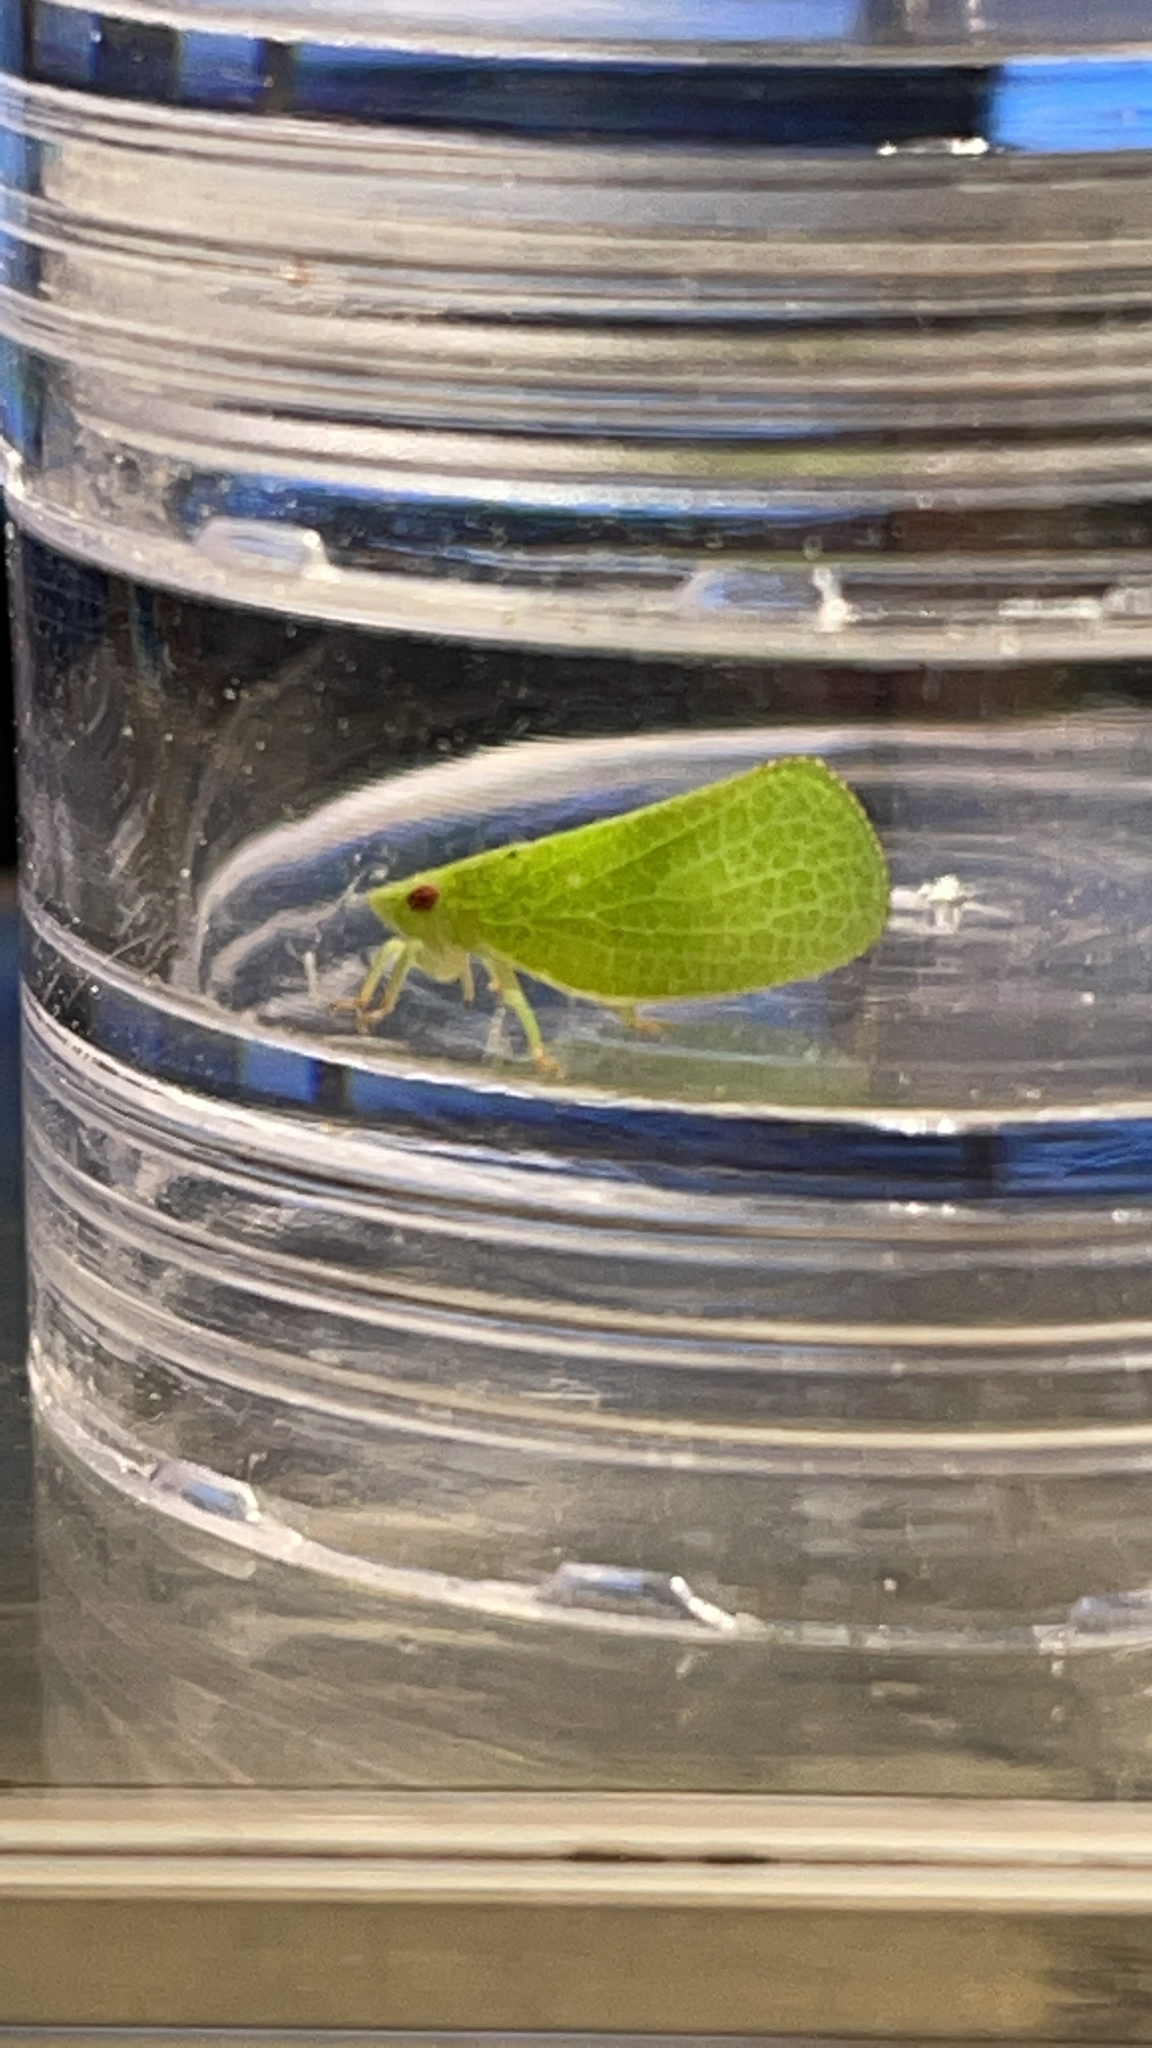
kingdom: Animalia
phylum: Arthropoda
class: Insecta
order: Hemiptera
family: Acanaloniidae
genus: Acanalonia
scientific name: Acanalonia conica
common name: Green cone-headed planthopper
